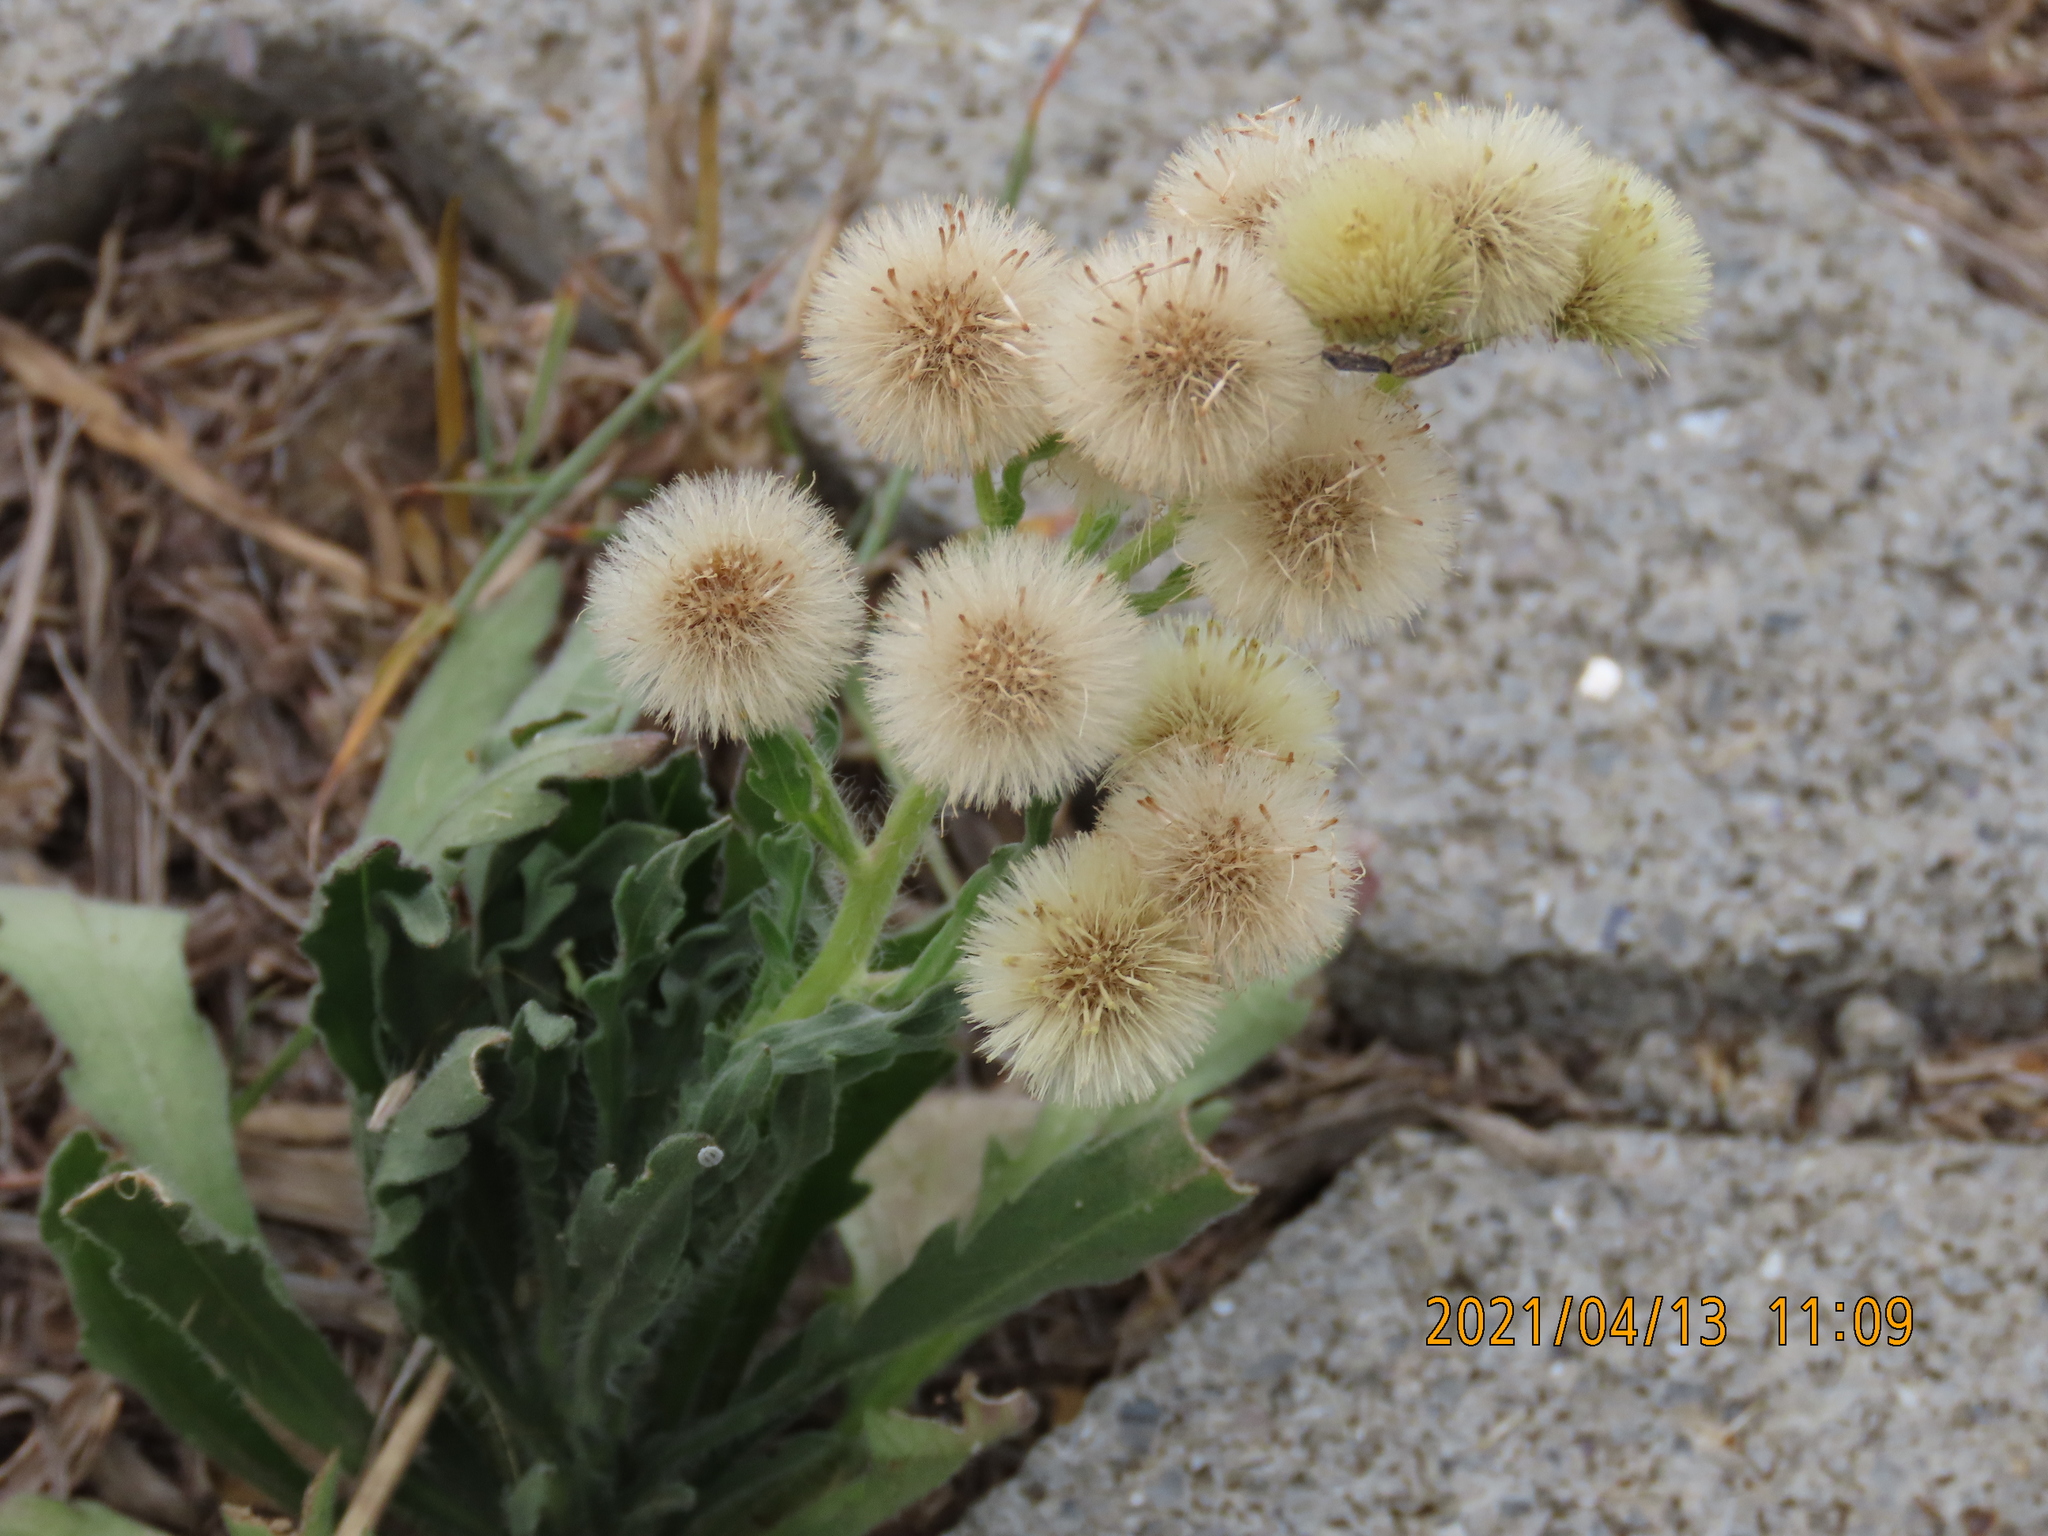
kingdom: Plantae
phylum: Tracheophyta
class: Magnoliopsida
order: Asterales
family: Asteraceae
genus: Erigeron
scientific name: Erigeron bonariensis
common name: Argentine fleabane
